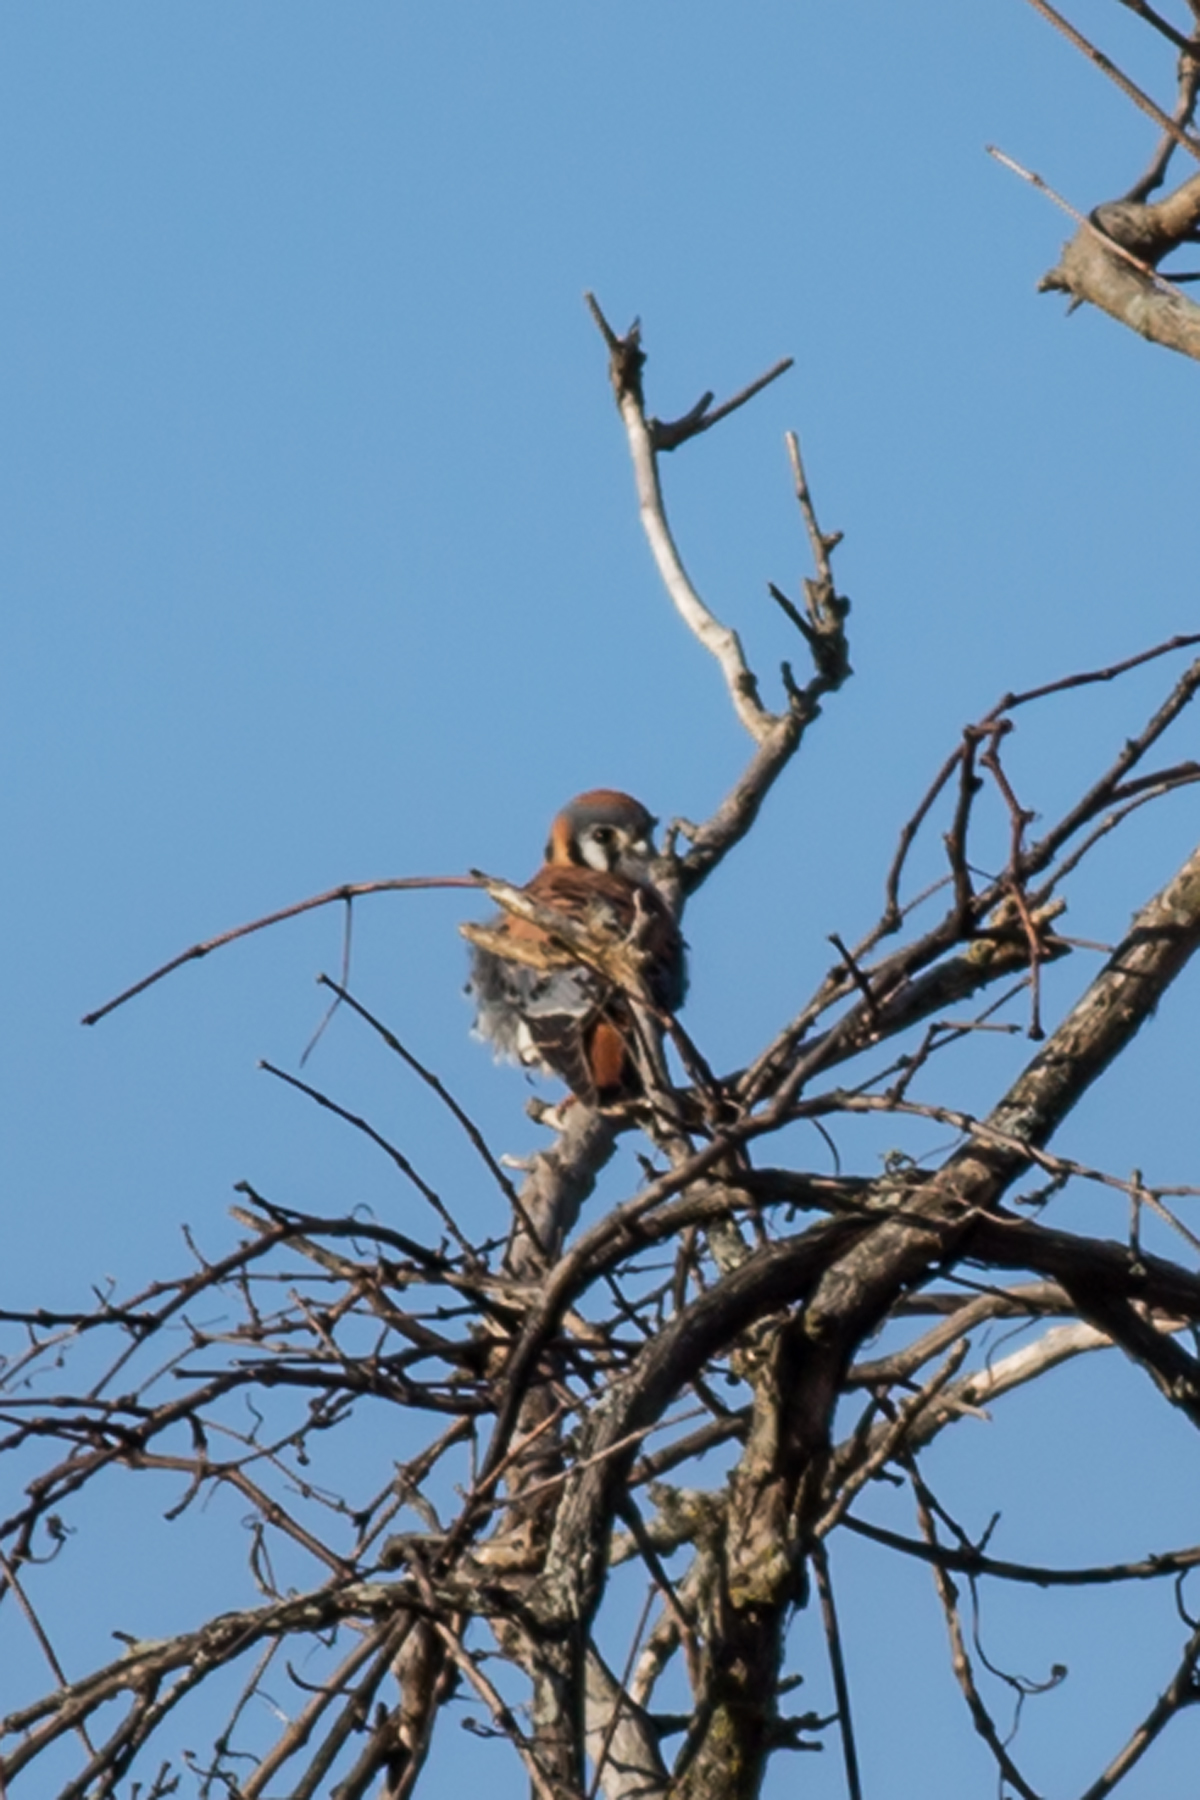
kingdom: Animalia
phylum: Chordata
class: Aves
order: Falconiformes
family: Falconidae
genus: Falco
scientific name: Falco sparverius
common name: American kestrel
